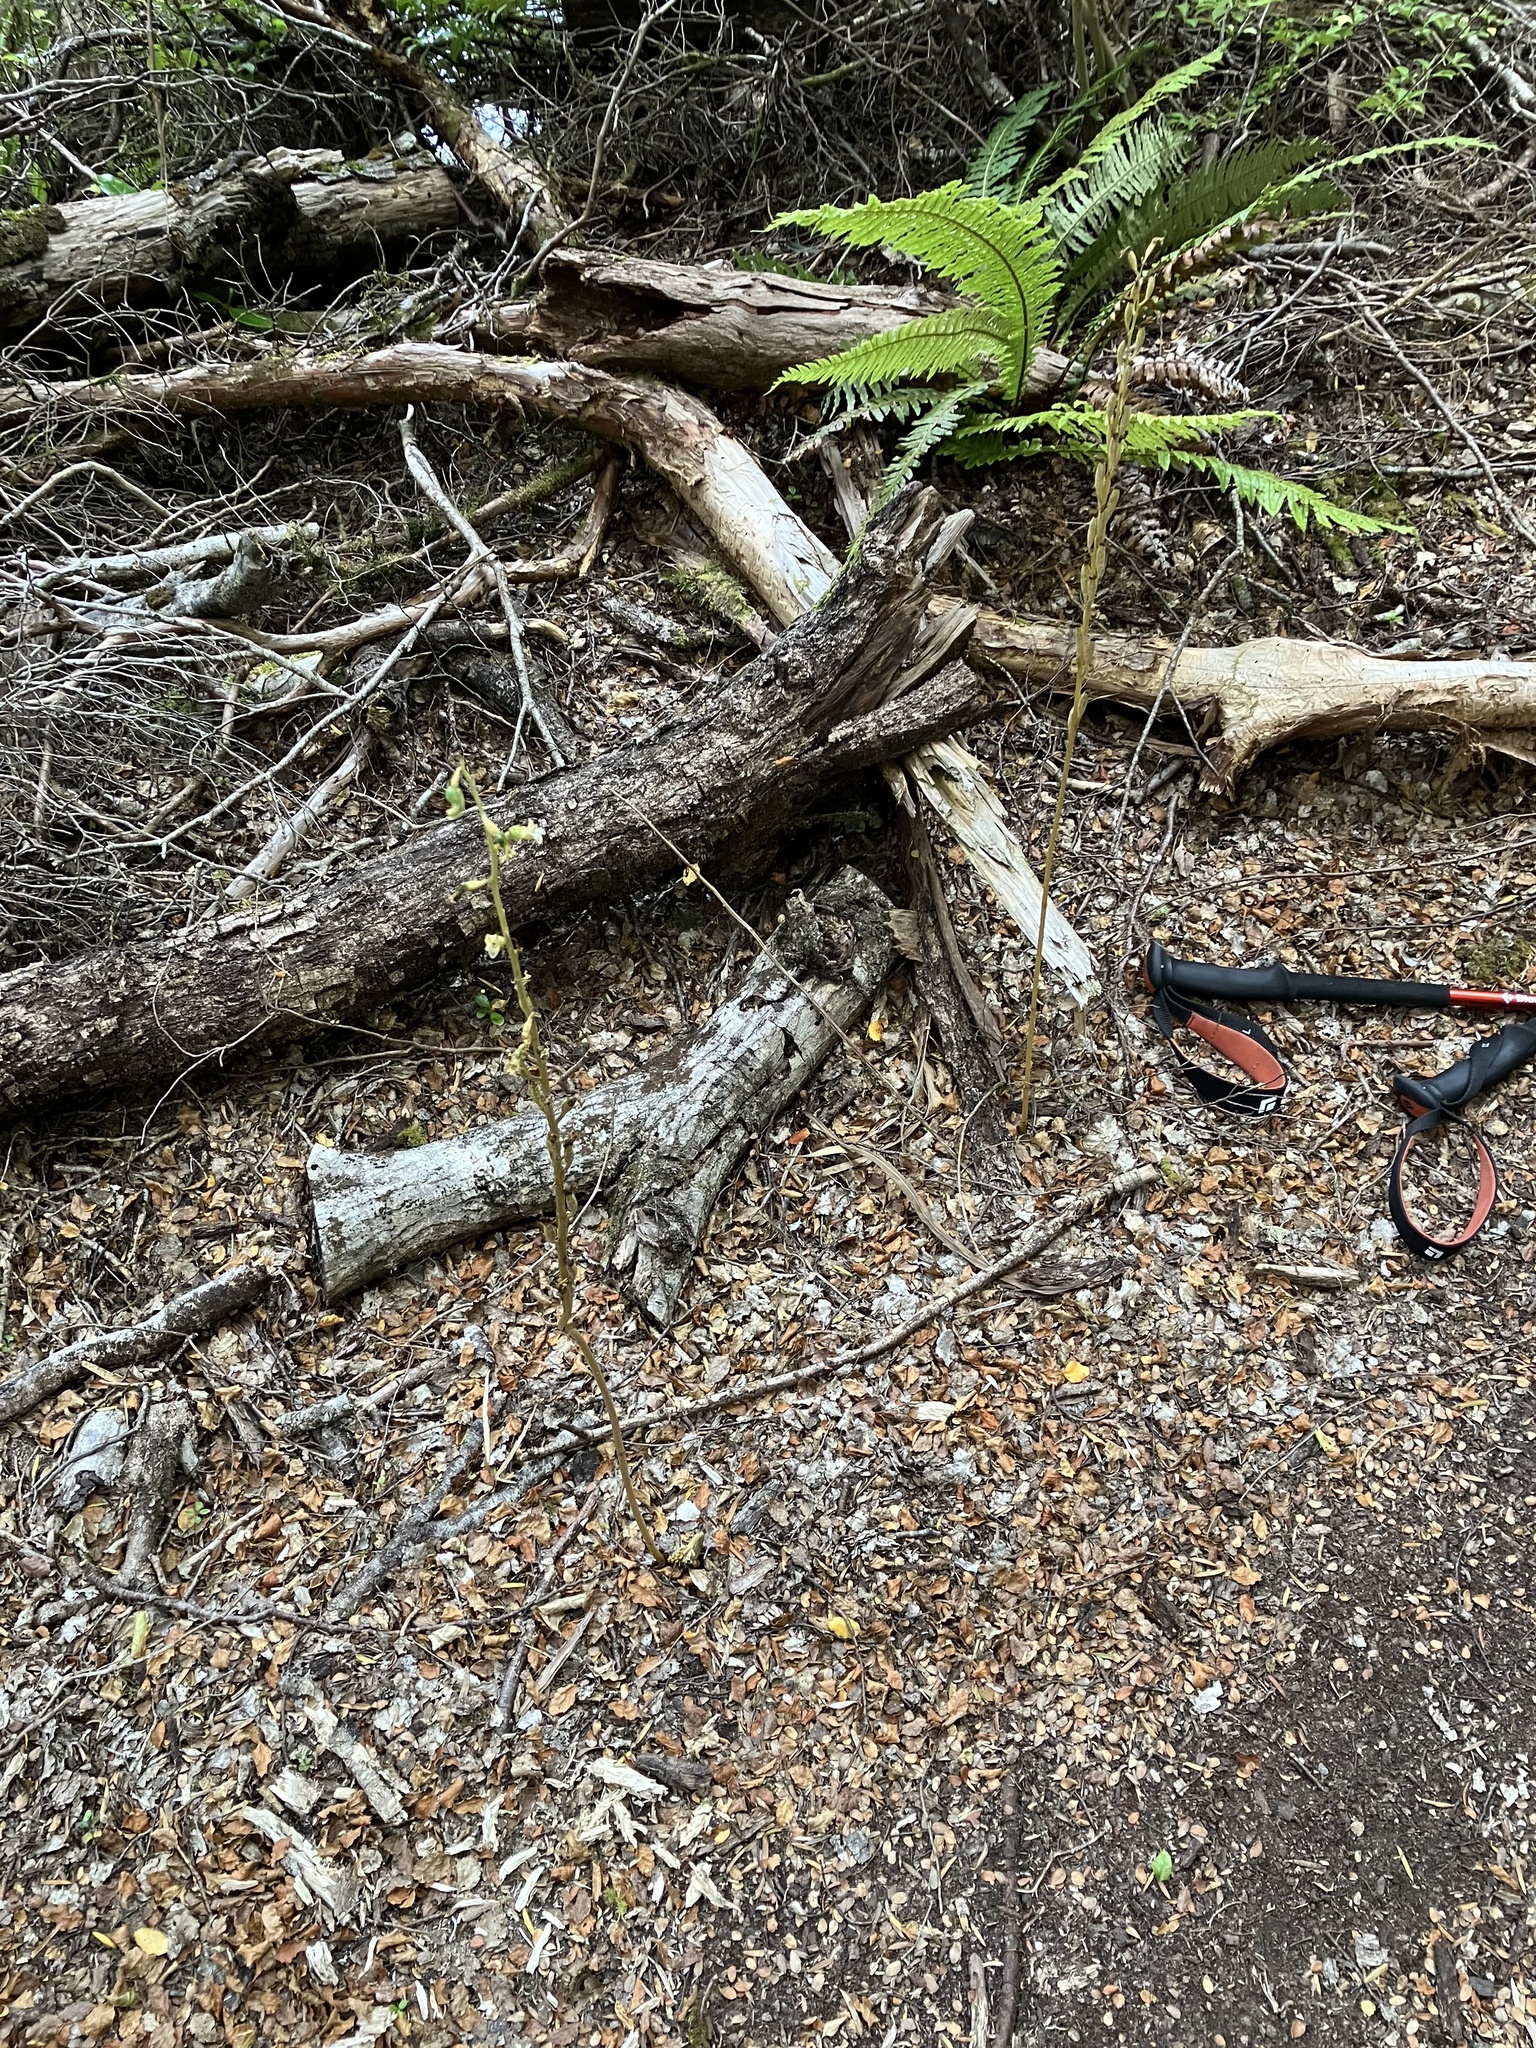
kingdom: Plantae
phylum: Tracheophyta
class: Liliopsida
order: Asparagales
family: Orchidaceae
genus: Gastrodia
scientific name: Gastrodia cunninghamii
